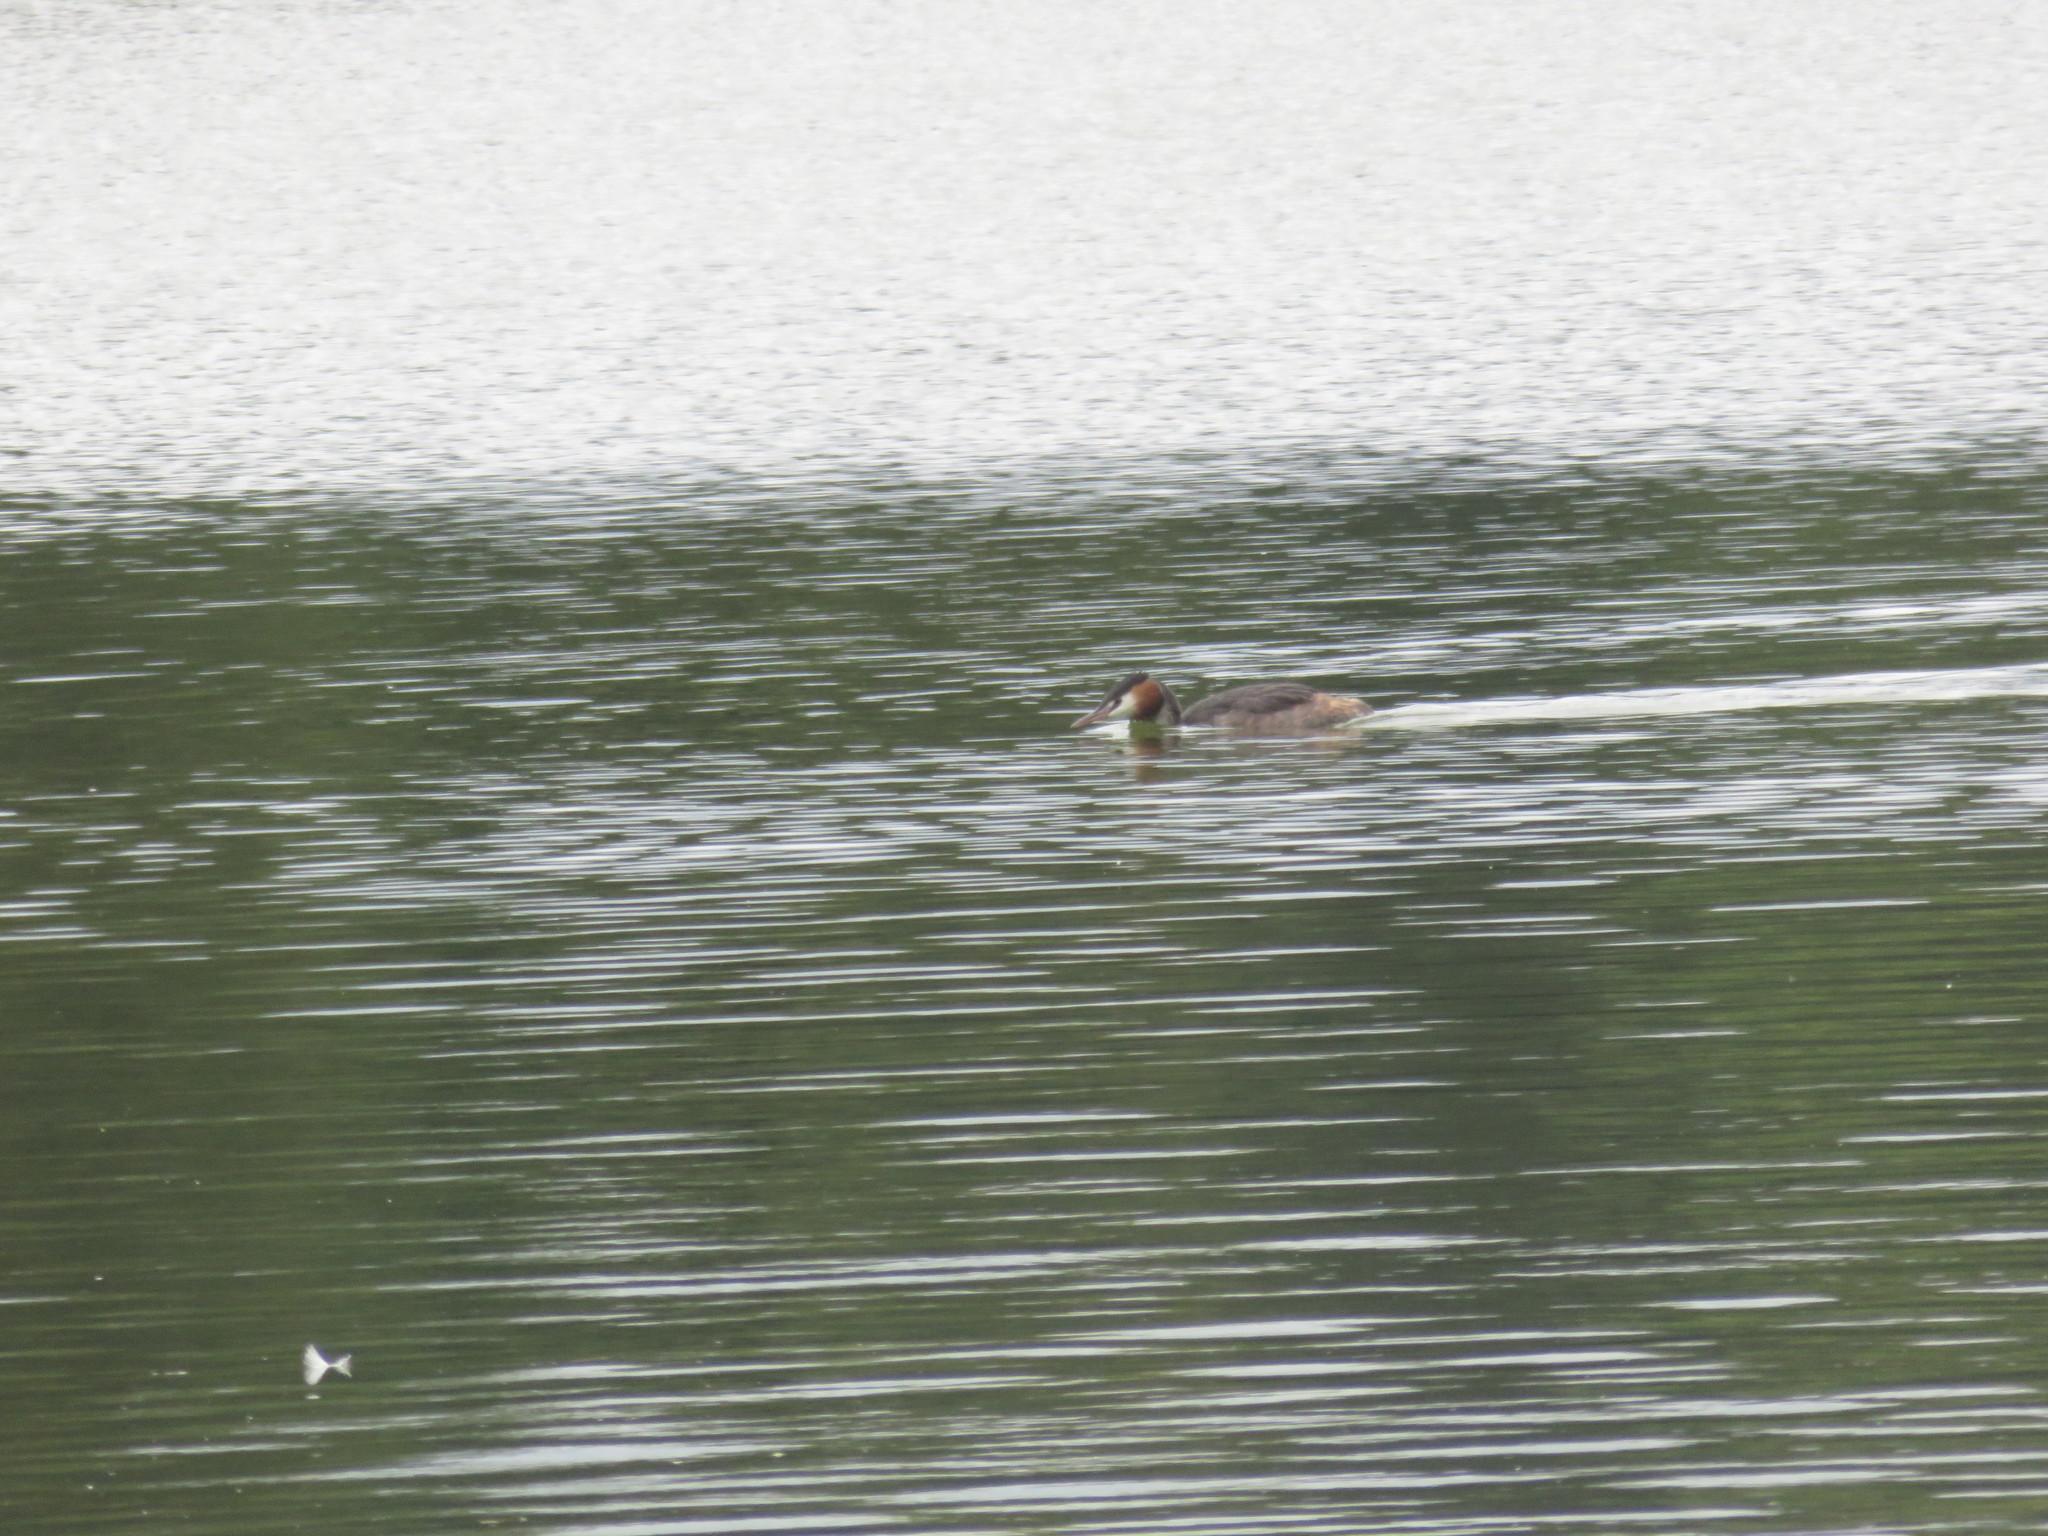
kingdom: Animalia
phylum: Chordata
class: Aves
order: Podicipediformes
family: Podicipedidae
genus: Podiceps
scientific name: Podiceps cristatus
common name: Great crested grebe
